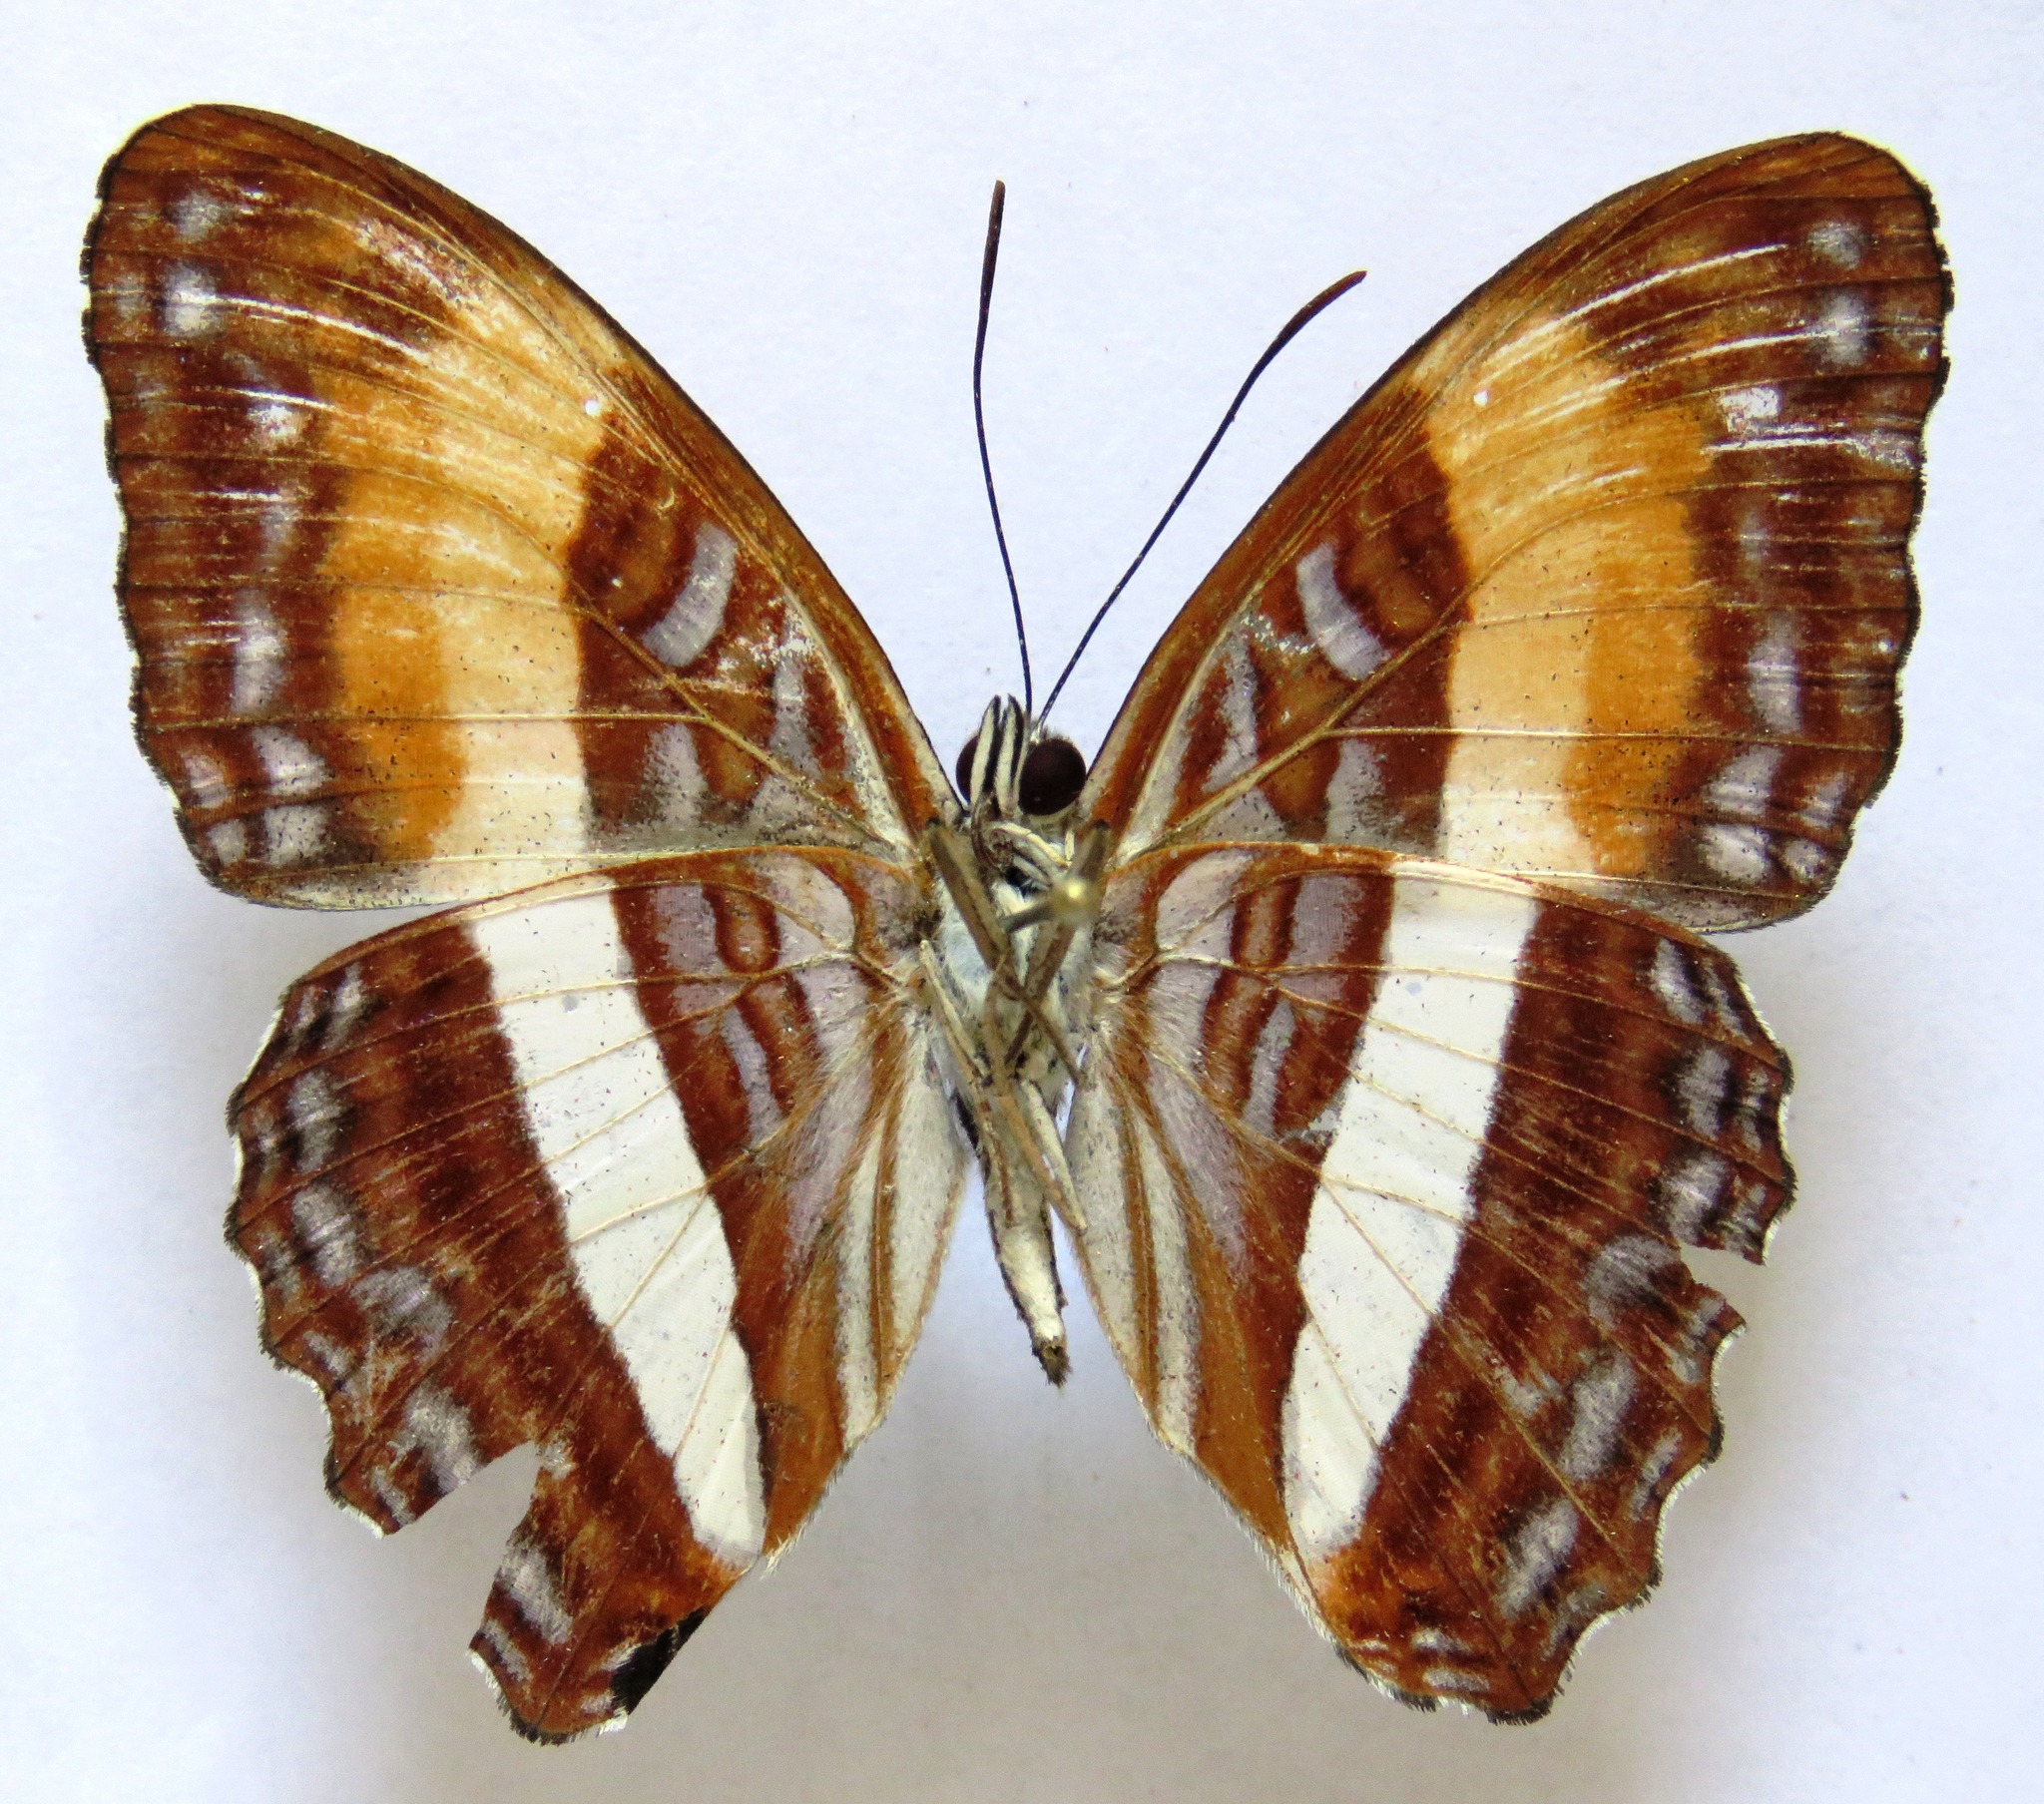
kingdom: Animalia
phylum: Arthropoda
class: Insecta
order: Lepidoptera
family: Nymphalidae
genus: Limenitis
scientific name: Limenitis cocala
